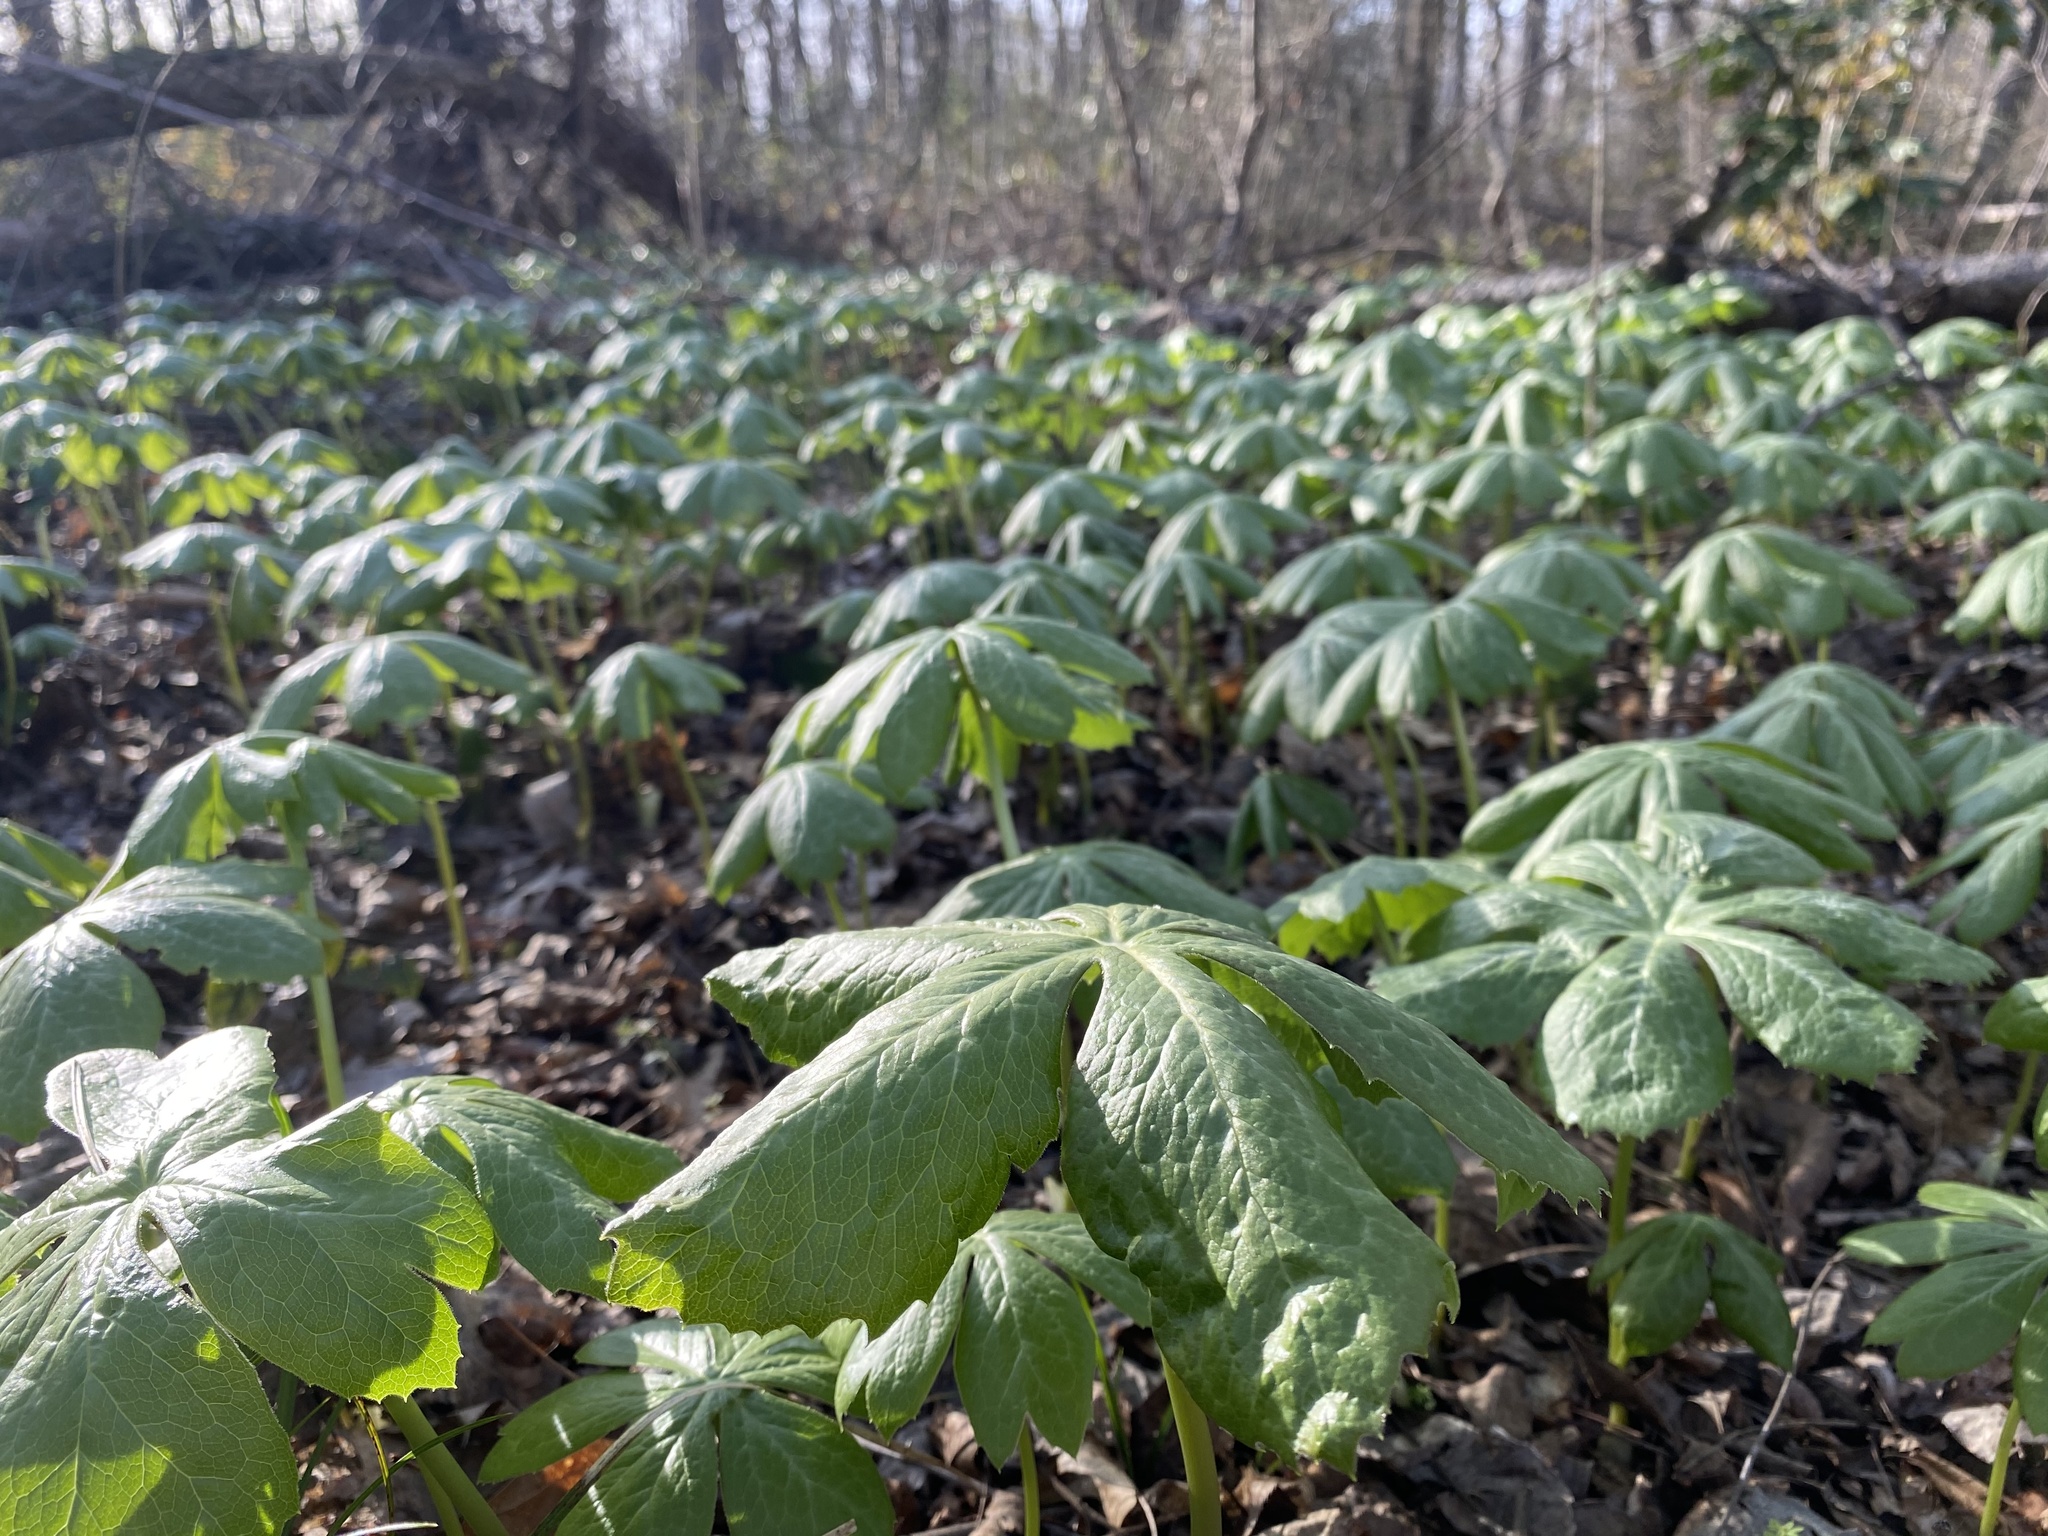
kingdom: Plantae
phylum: Tracheophyta
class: Magnoliopsida
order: Ranunculales
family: Berberidaceae
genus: Podophyllum
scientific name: Podophyllum peltatum
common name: Wild mandrake
